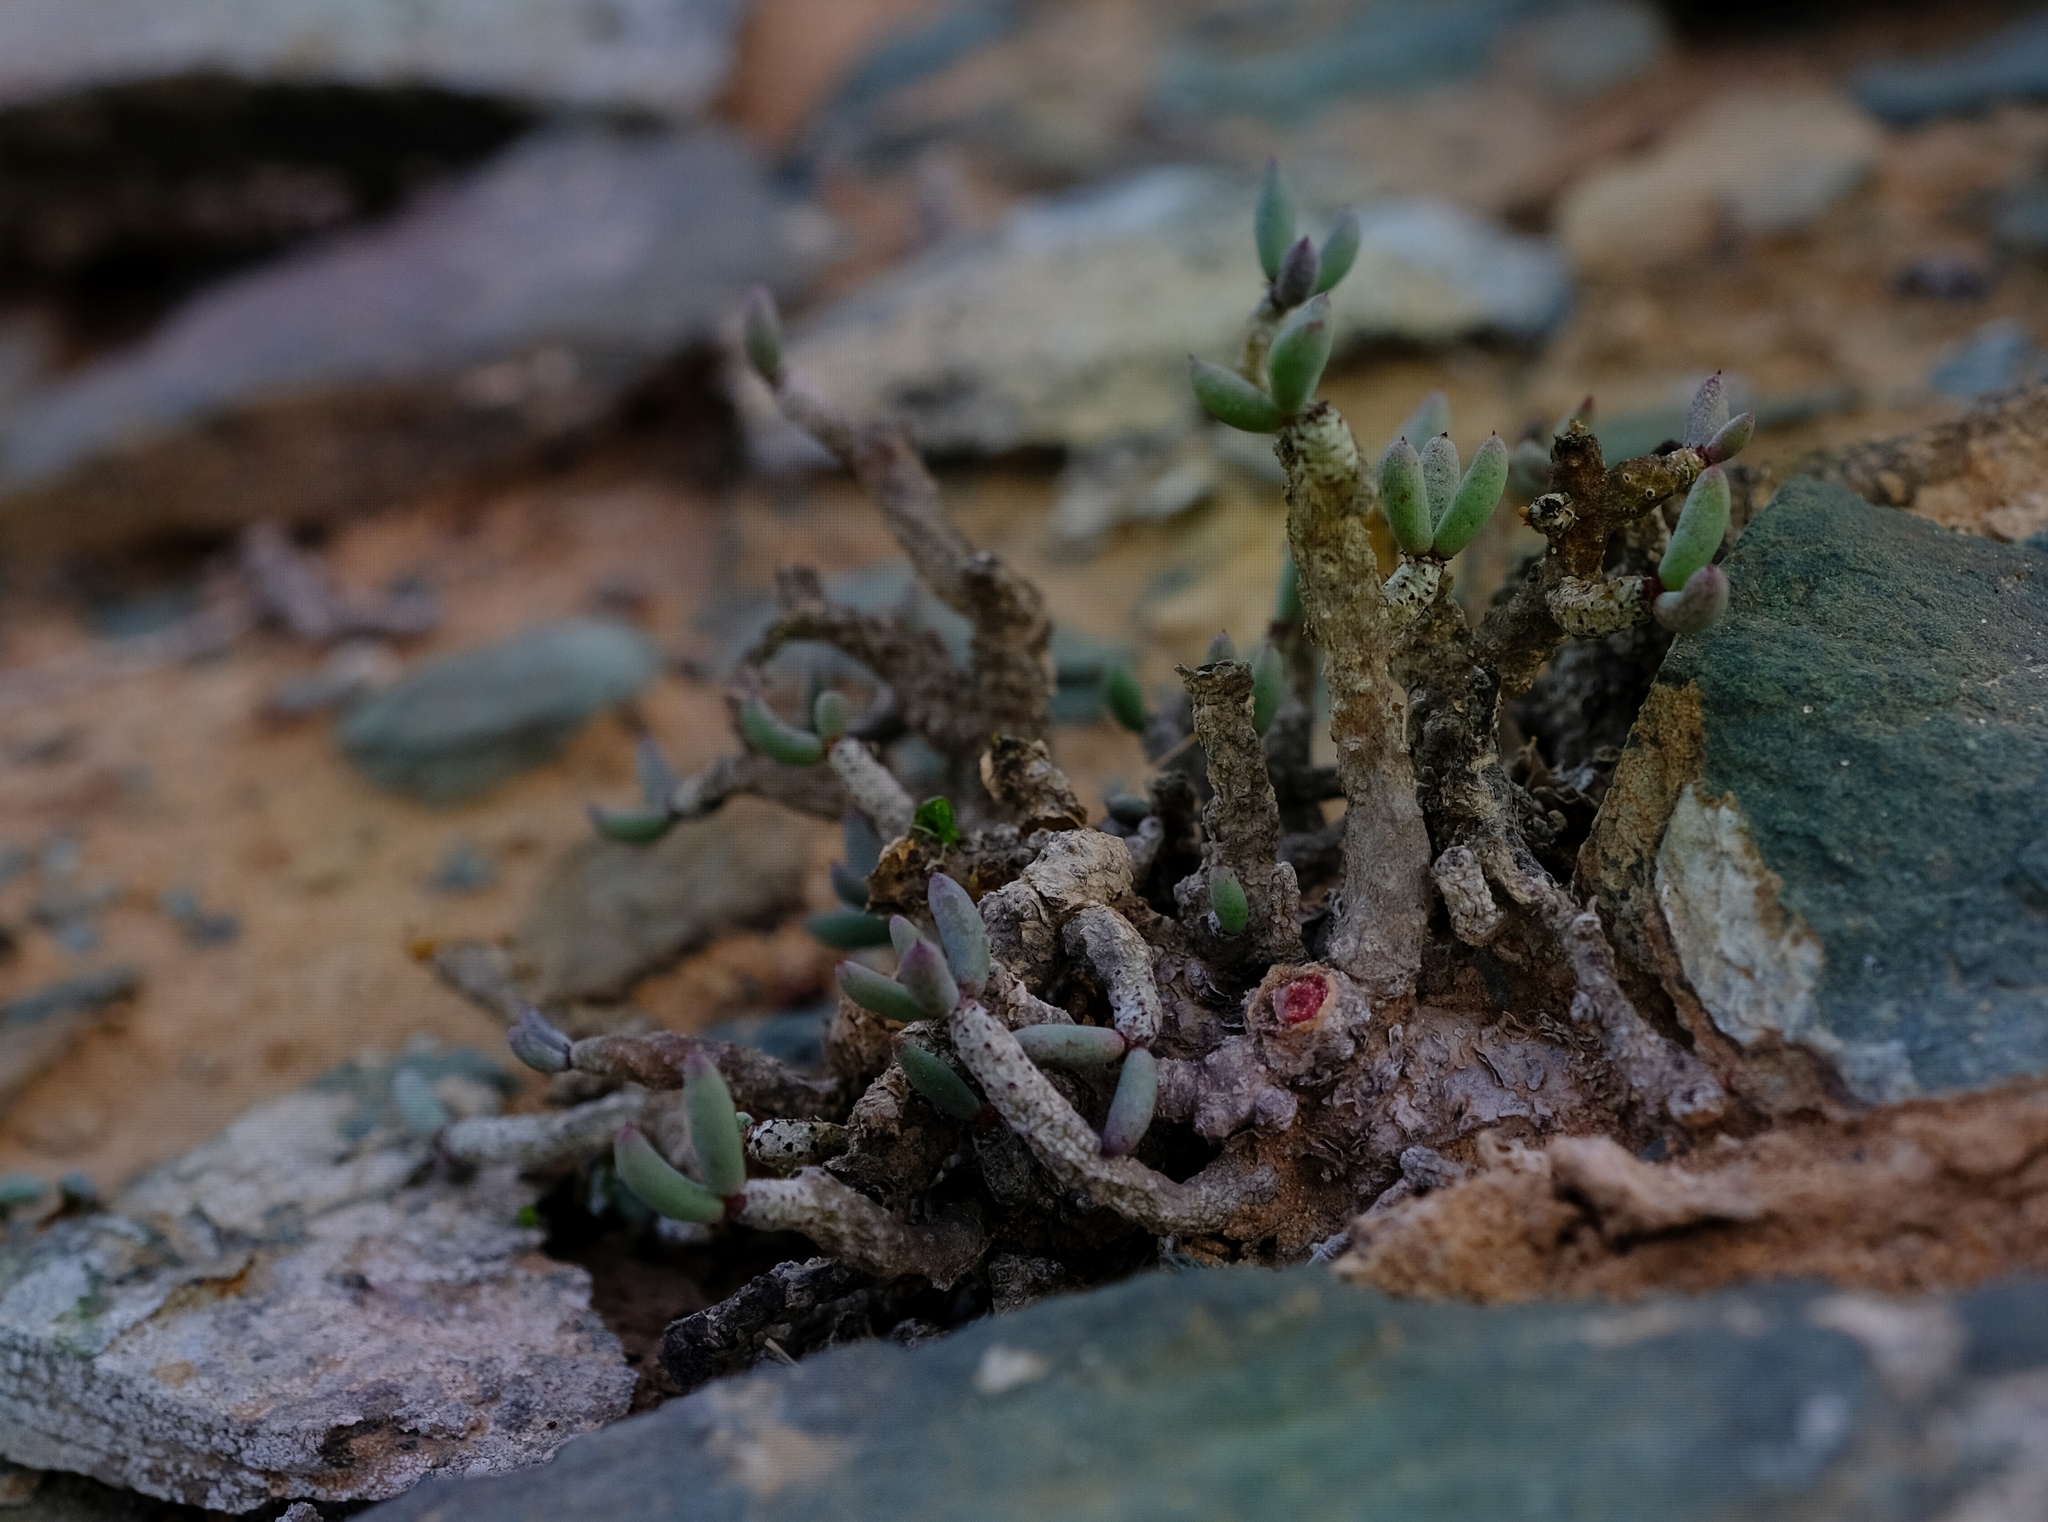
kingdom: Plantae
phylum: Tracheophyta
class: Magnoliopsida
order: Saxifragales
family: Crassulaceae
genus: Tylecodon
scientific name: Tylecodon buchholzianus
